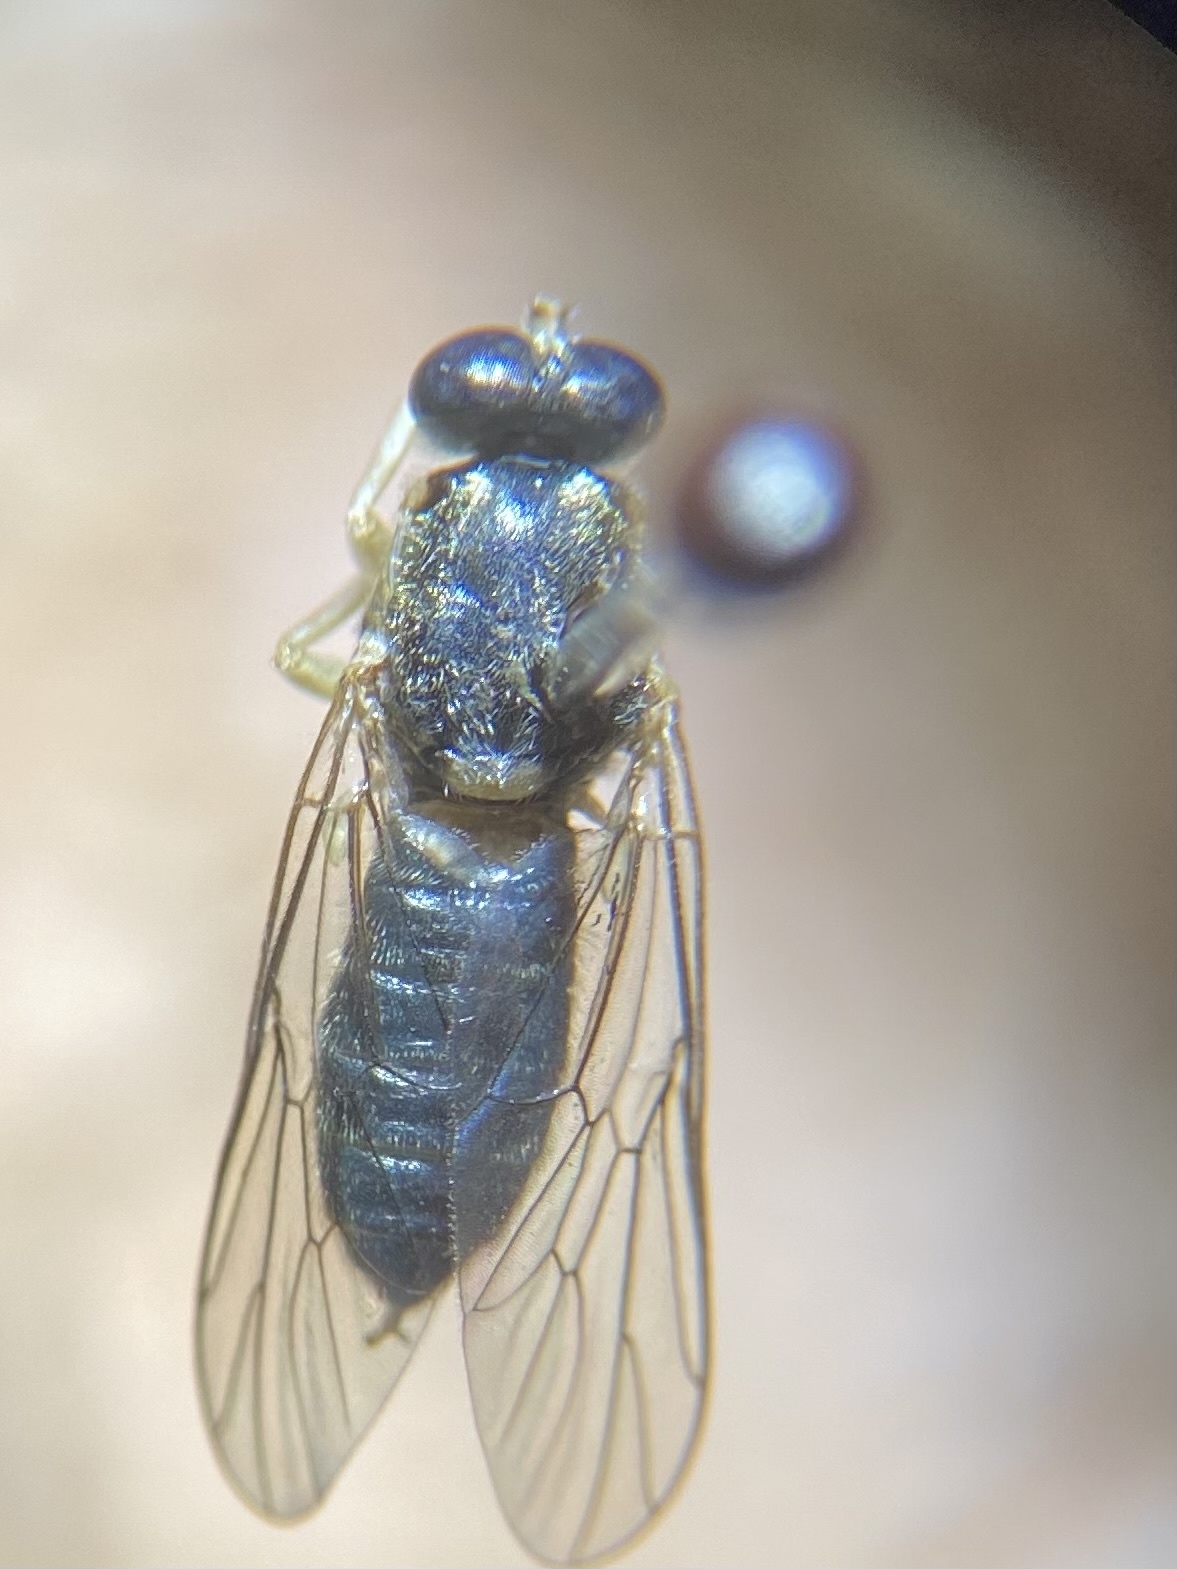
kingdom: Animalia
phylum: Arthropoda
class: Insecta
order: Diptera
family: Xylomyidae
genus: Solva
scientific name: Solva crepuscula
